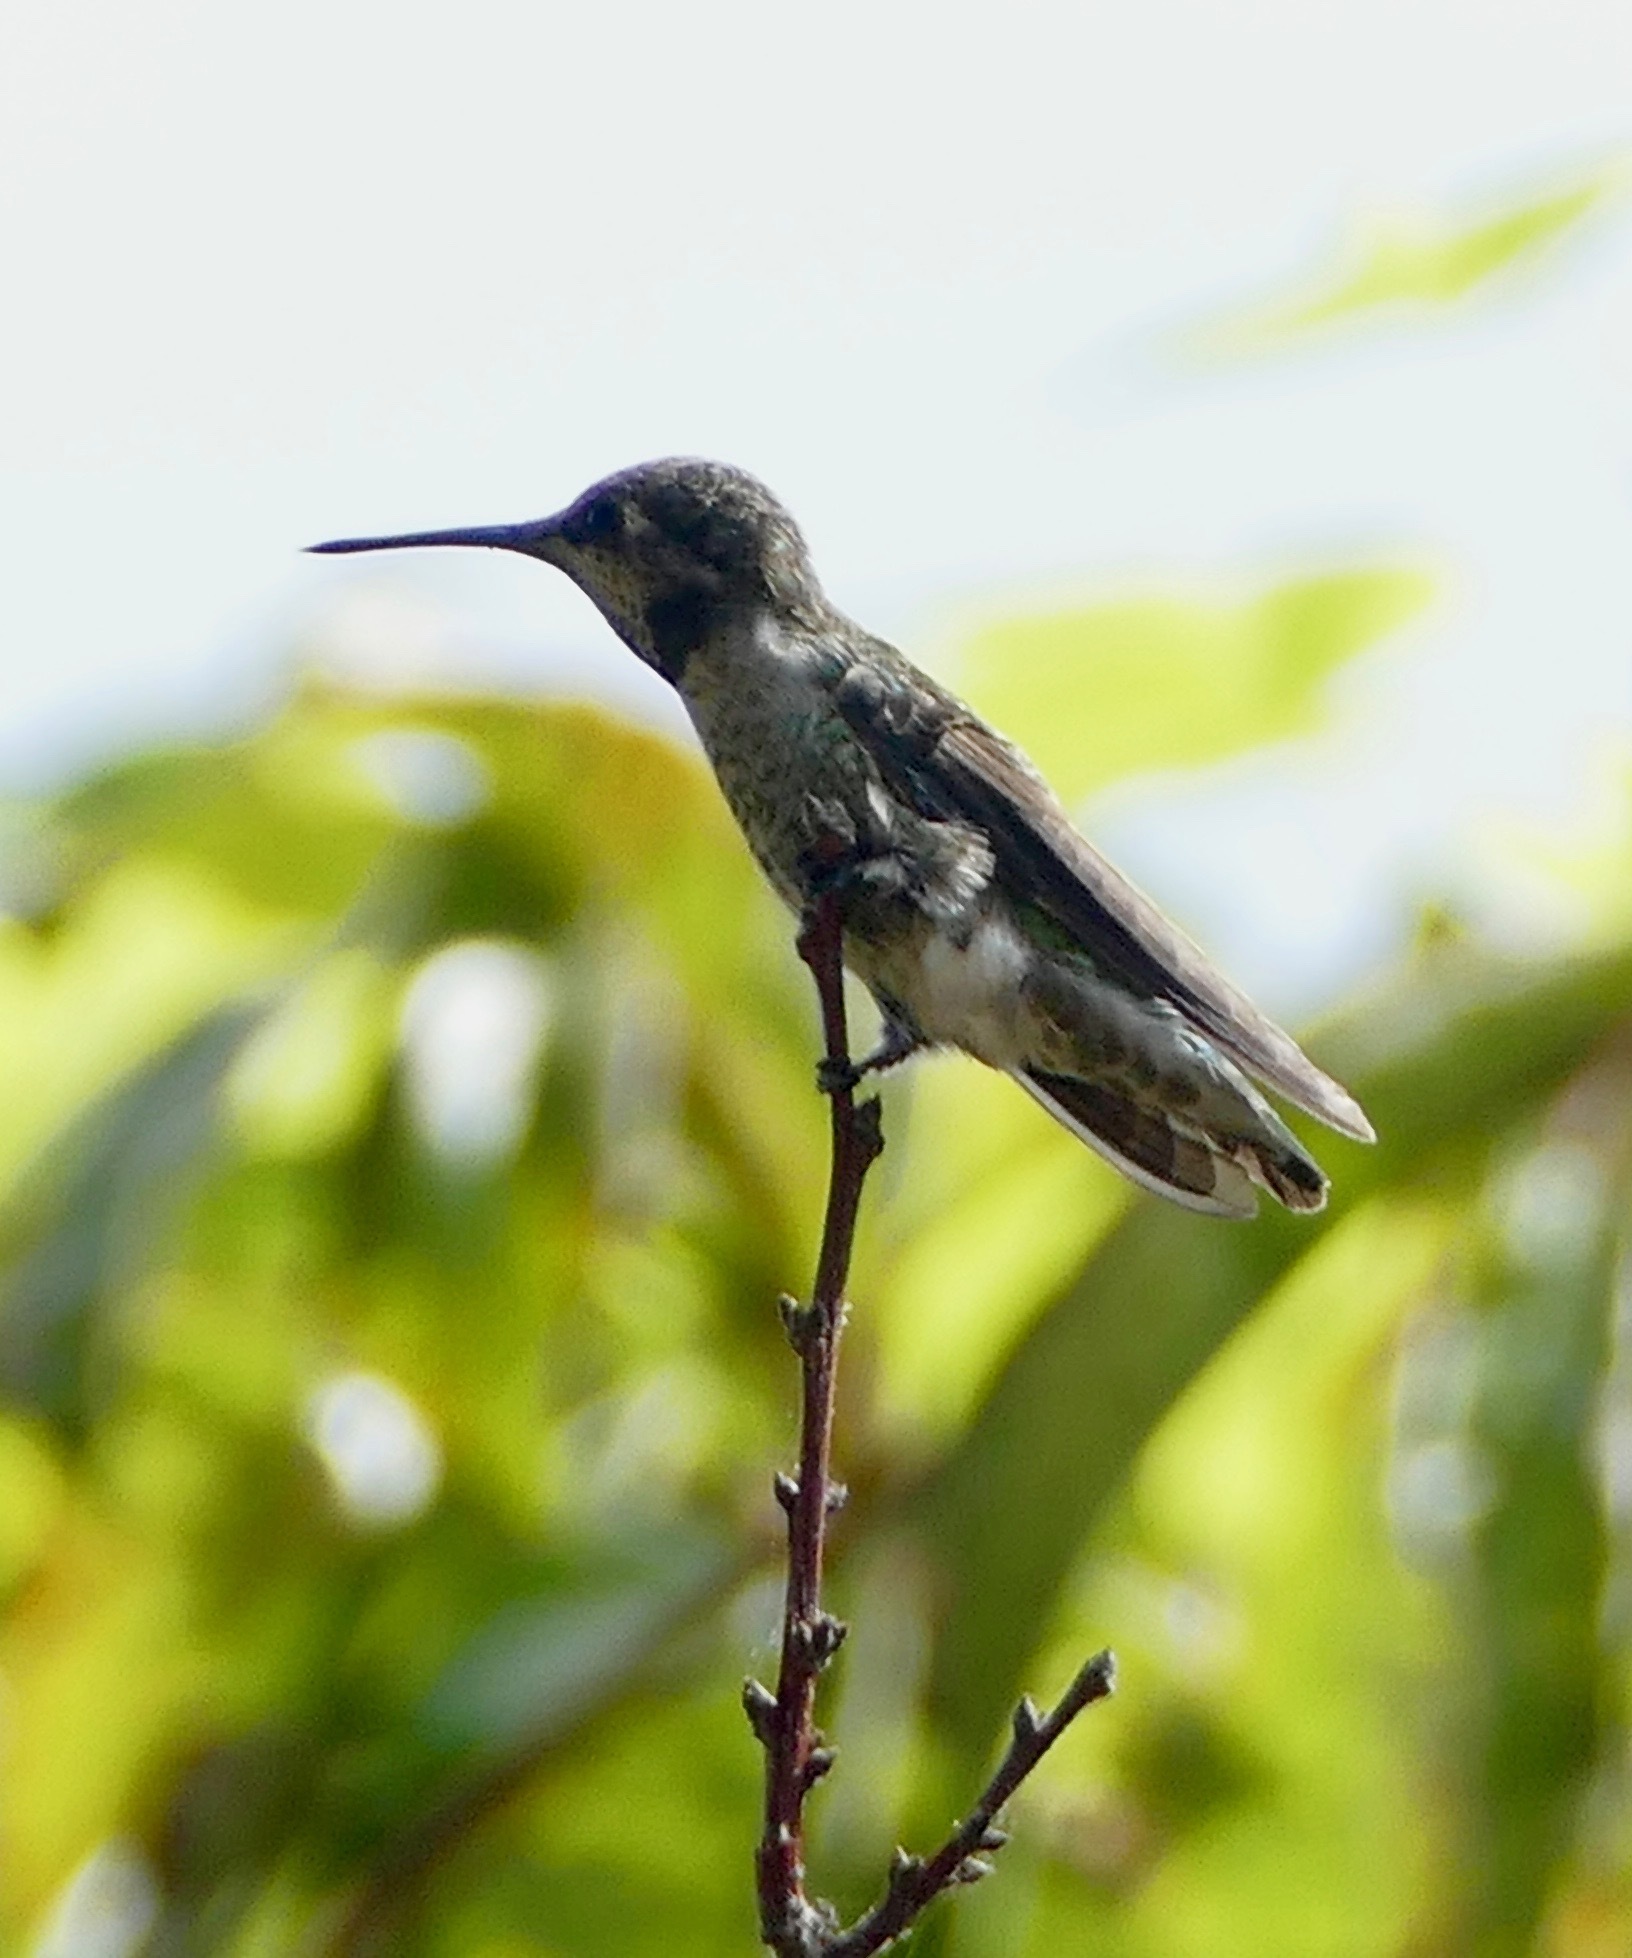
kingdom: Animalia
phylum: Chordata
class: Aves
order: Apodiformes
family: Trochilidae
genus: Calypte
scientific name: Calypte anna
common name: Anna's hummingbird
